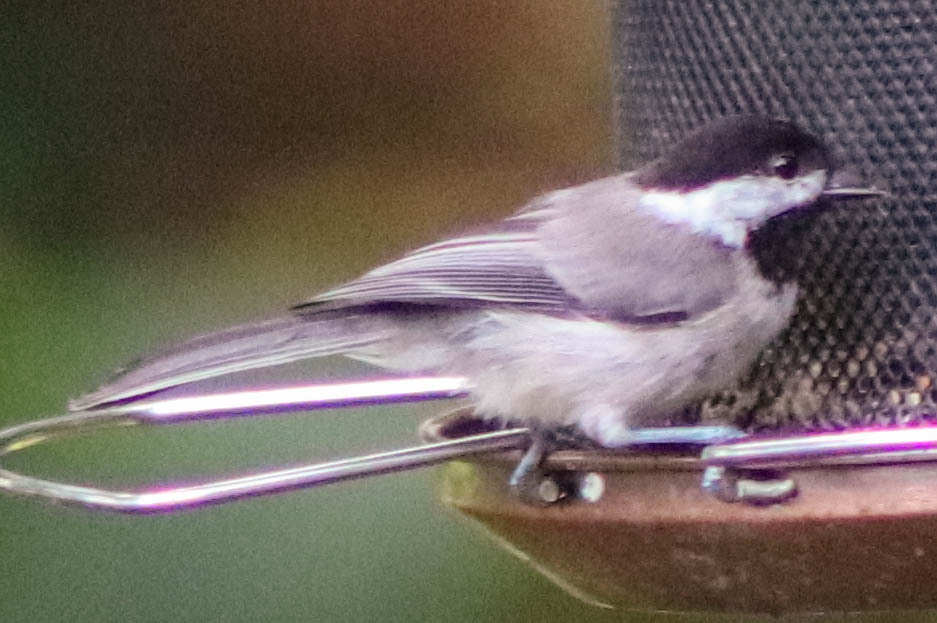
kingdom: Animalia
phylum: Chordata
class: Aves
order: Passeriformes
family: Paridae
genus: Poecile
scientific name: Poecile carolinensis
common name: Carolina chickadee
